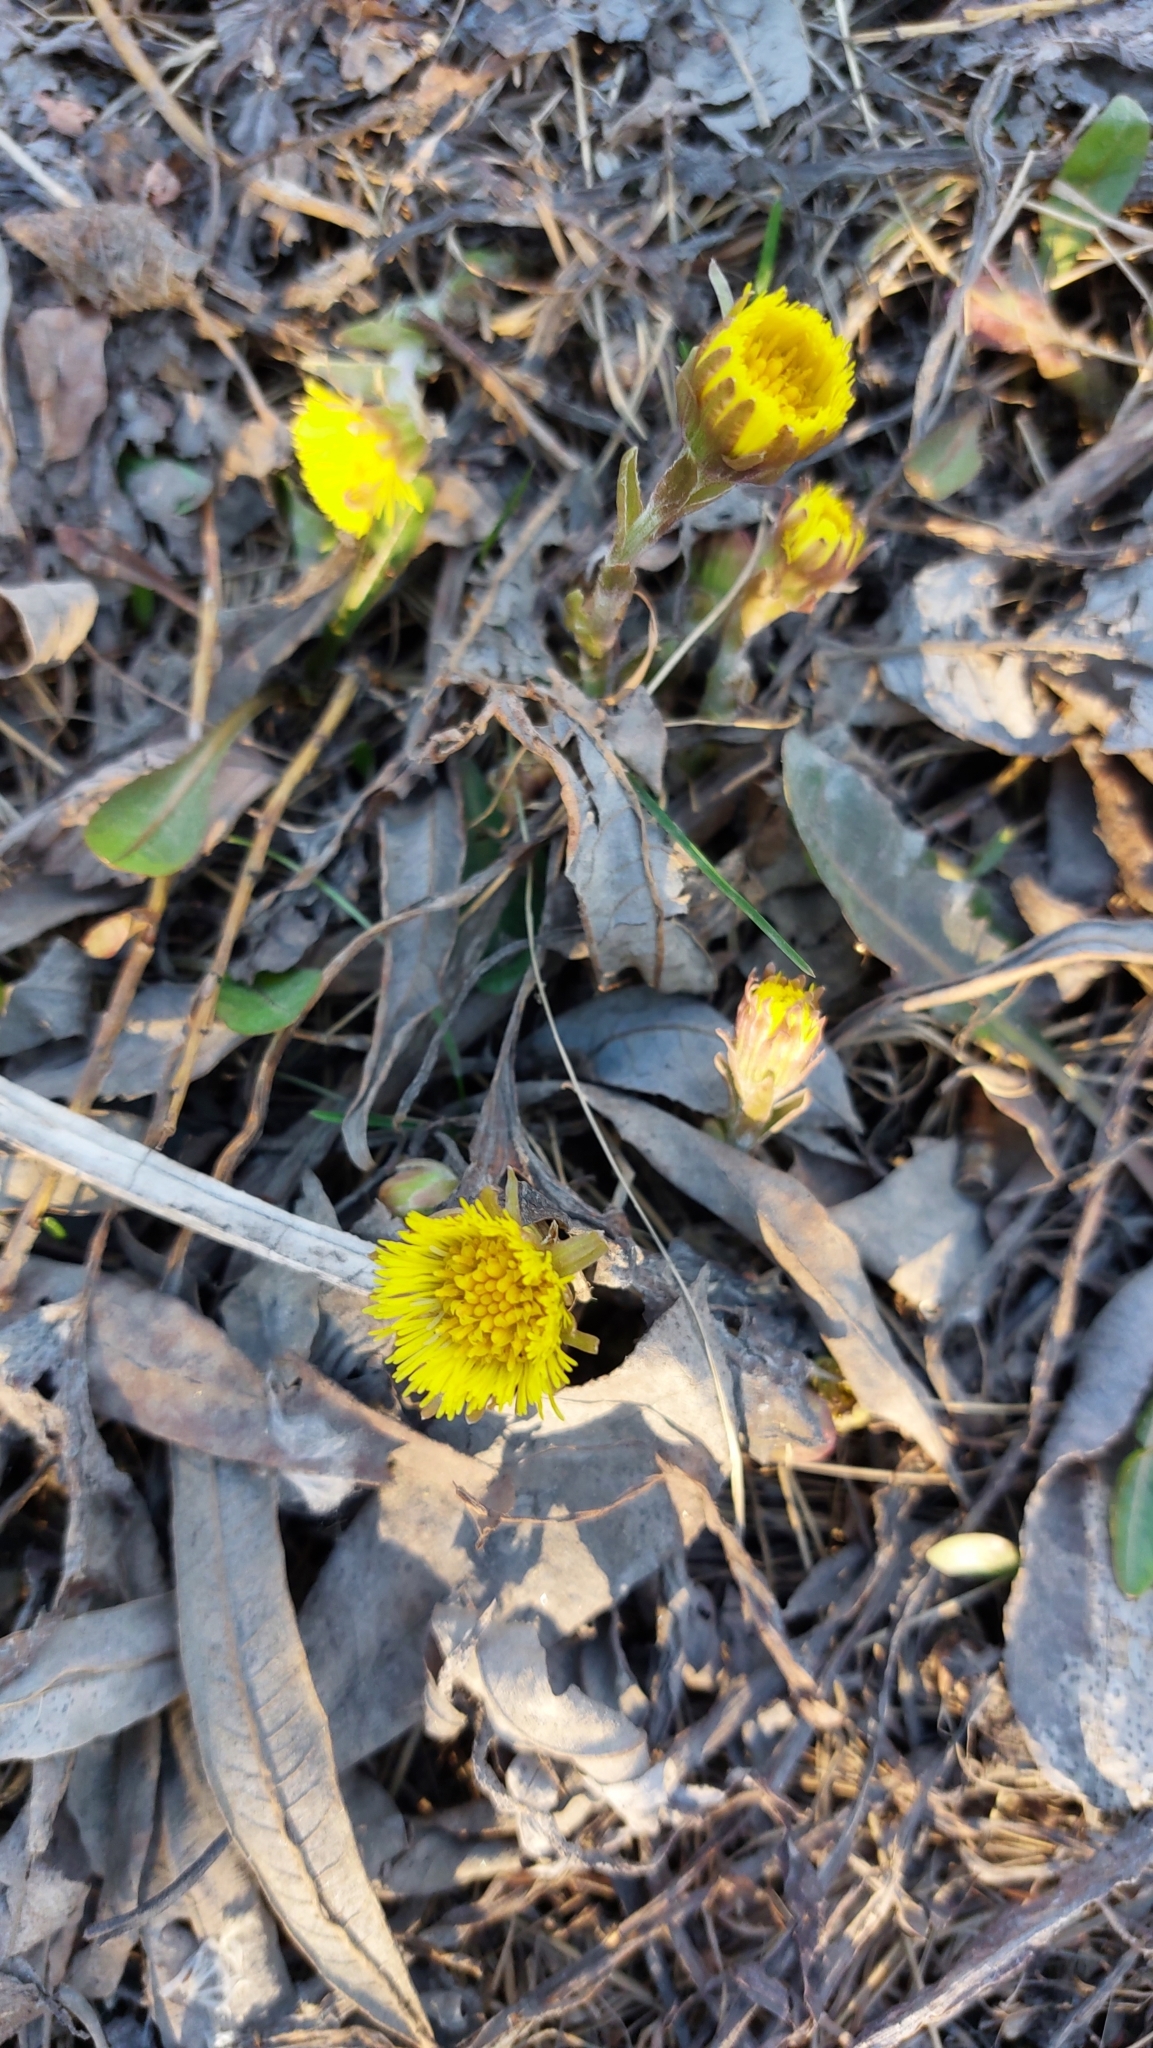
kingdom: Plantae
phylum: Tracheophyta
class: Magnoliopsida
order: Asterales
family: Asteraceae
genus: Tussilago
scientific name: Tussilago farfara
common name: Coltsfoot
